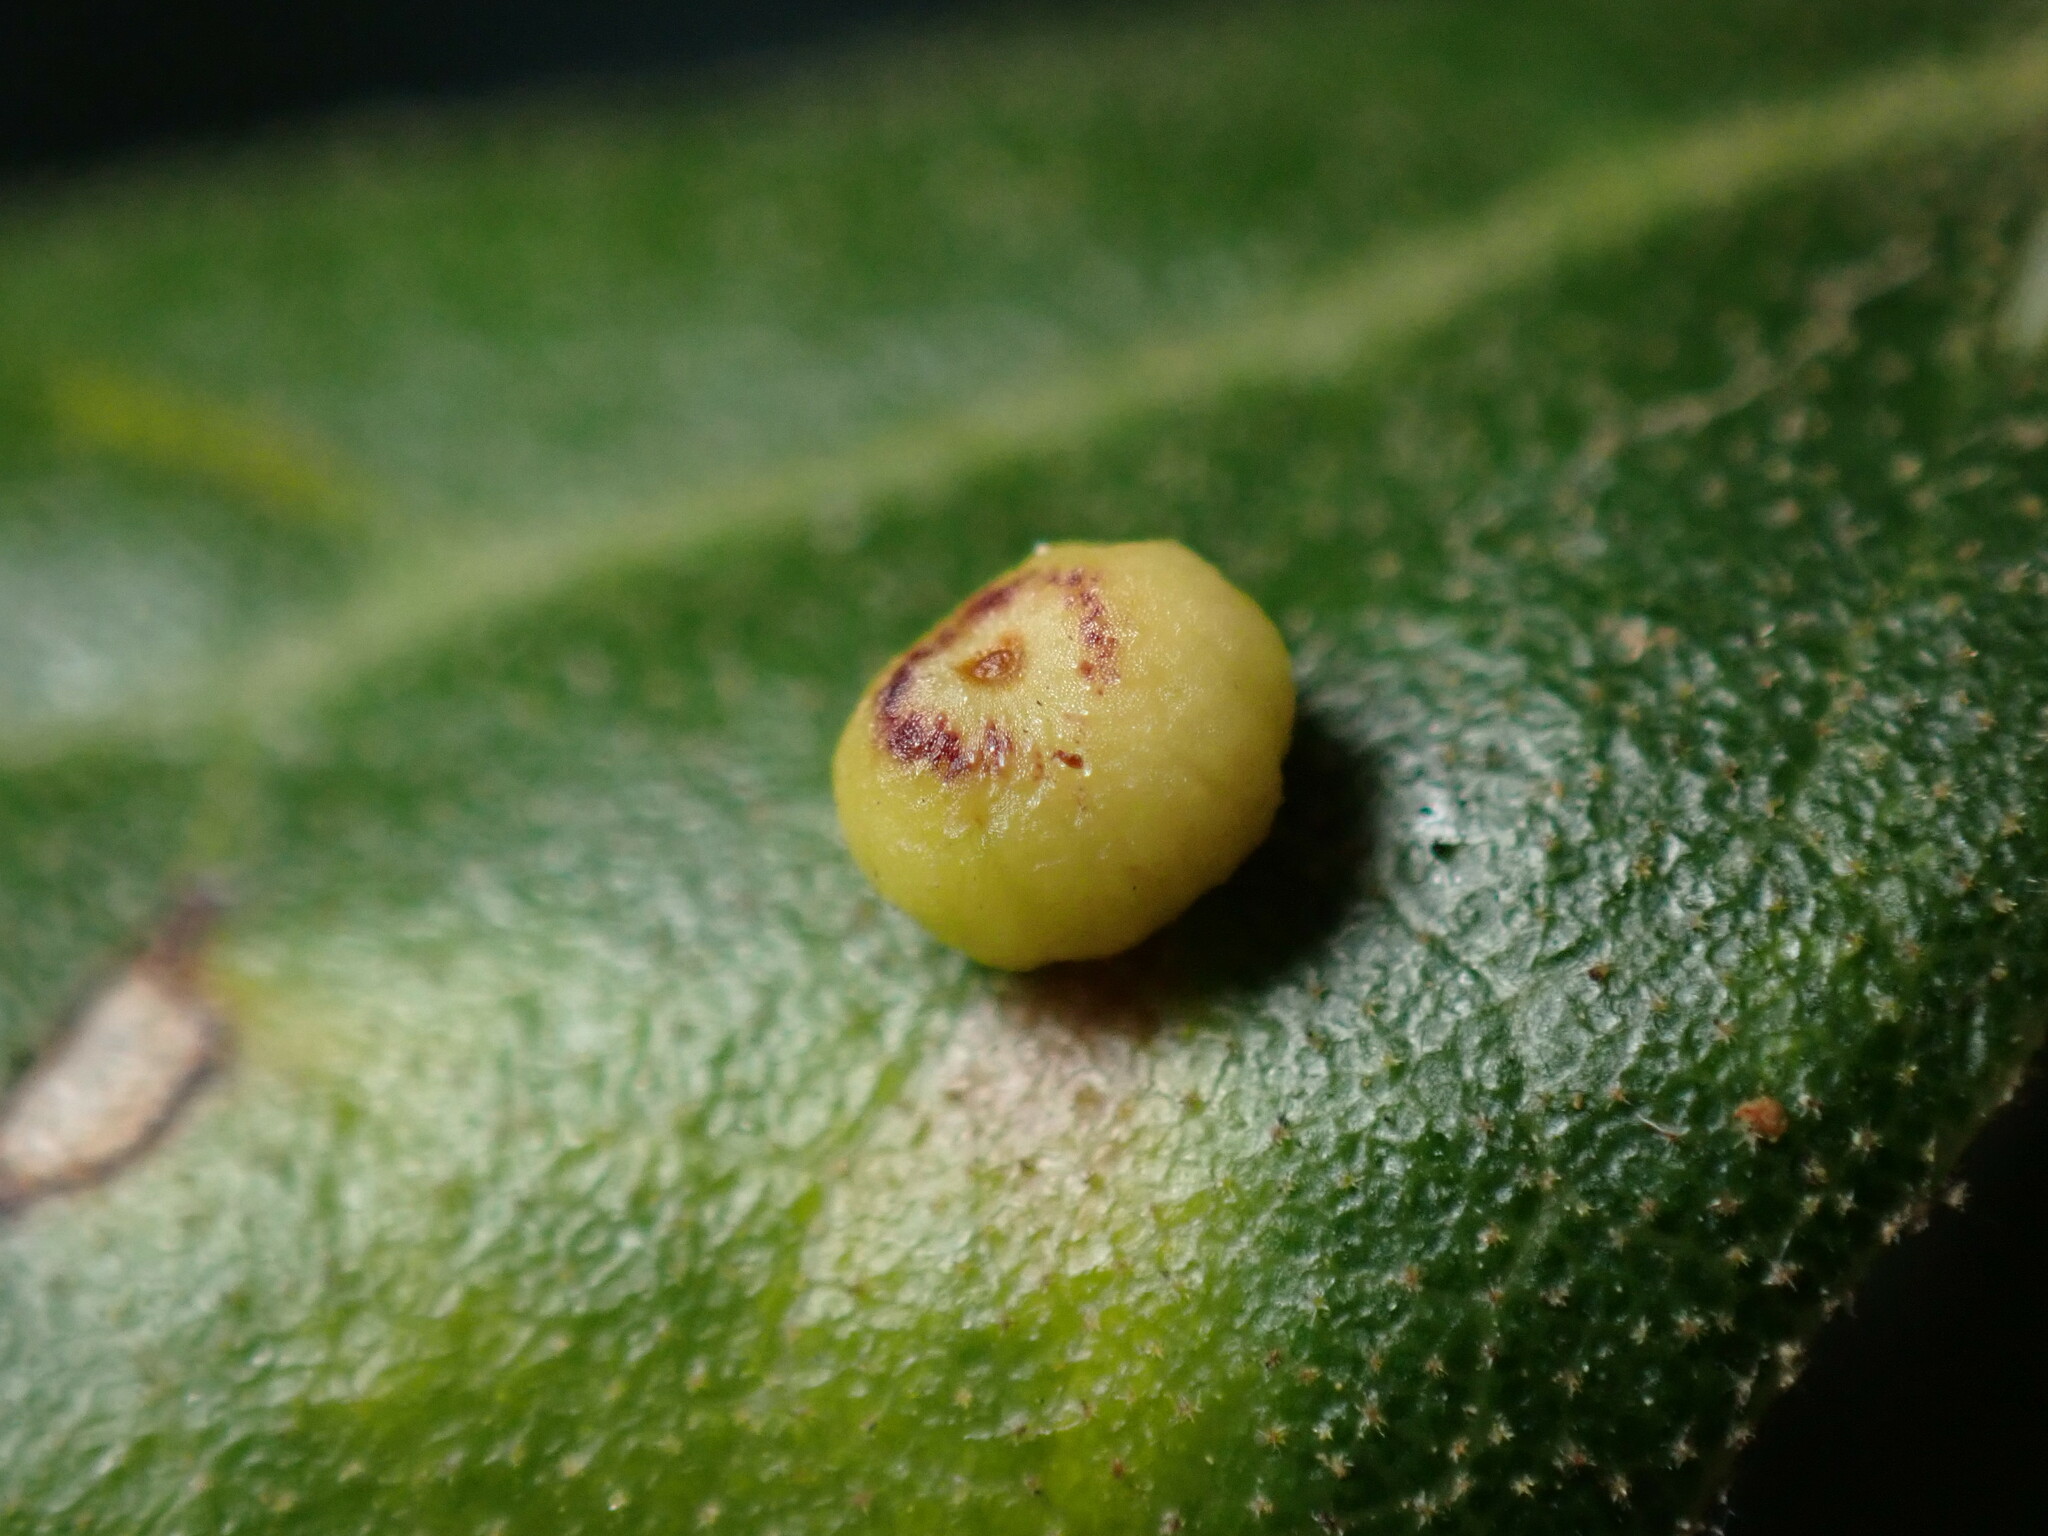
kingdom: Animalia
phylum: Arthropoda
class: Insecta
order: Hymenoptera
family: Cynipidae
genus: Dryocosmus
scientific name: Dryocosmus
